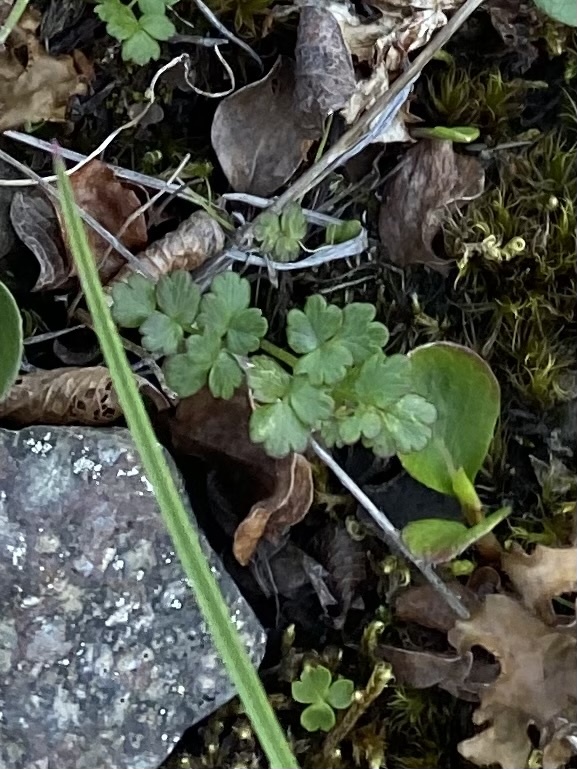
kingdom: Plantae
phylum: Tracheophyta
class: Magnoliopsida
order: Ranunculales
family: Ranunculaceae
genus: Thalictrum
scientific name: Thalictrum alpinum
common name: Alpine meadow-rue
